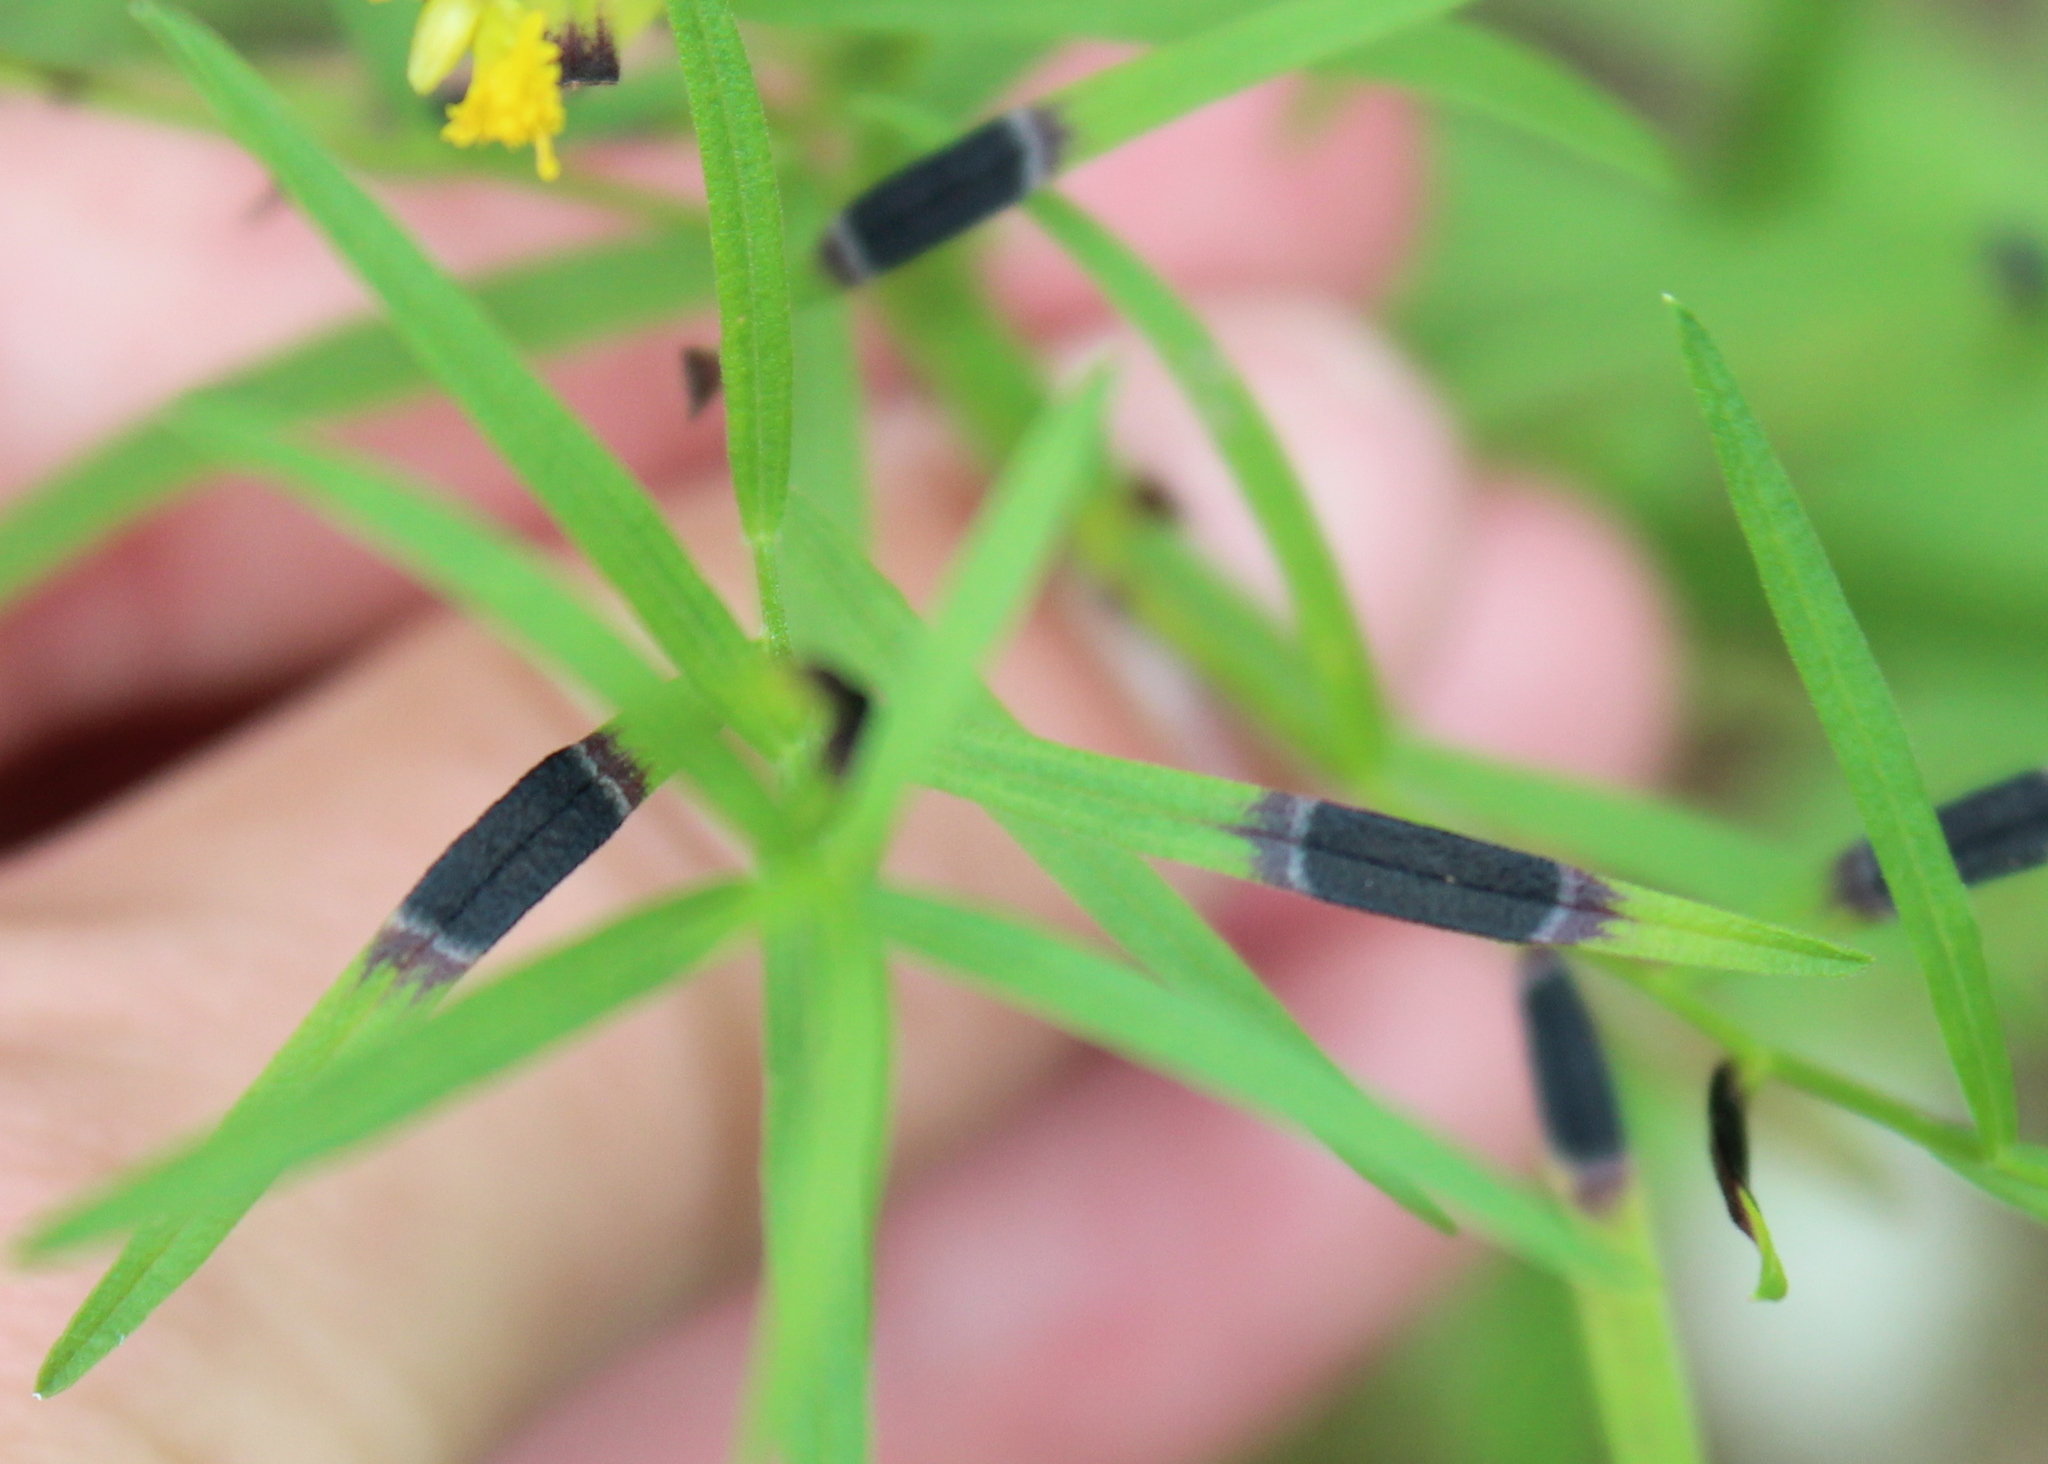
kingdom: Animalia
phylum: Arthropoda
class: Insecta
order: Diptera
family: Cecidomyiidae
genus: Asteromyia
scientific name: Asteromyia euthamiae
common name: Euthamia leaf gall midge
